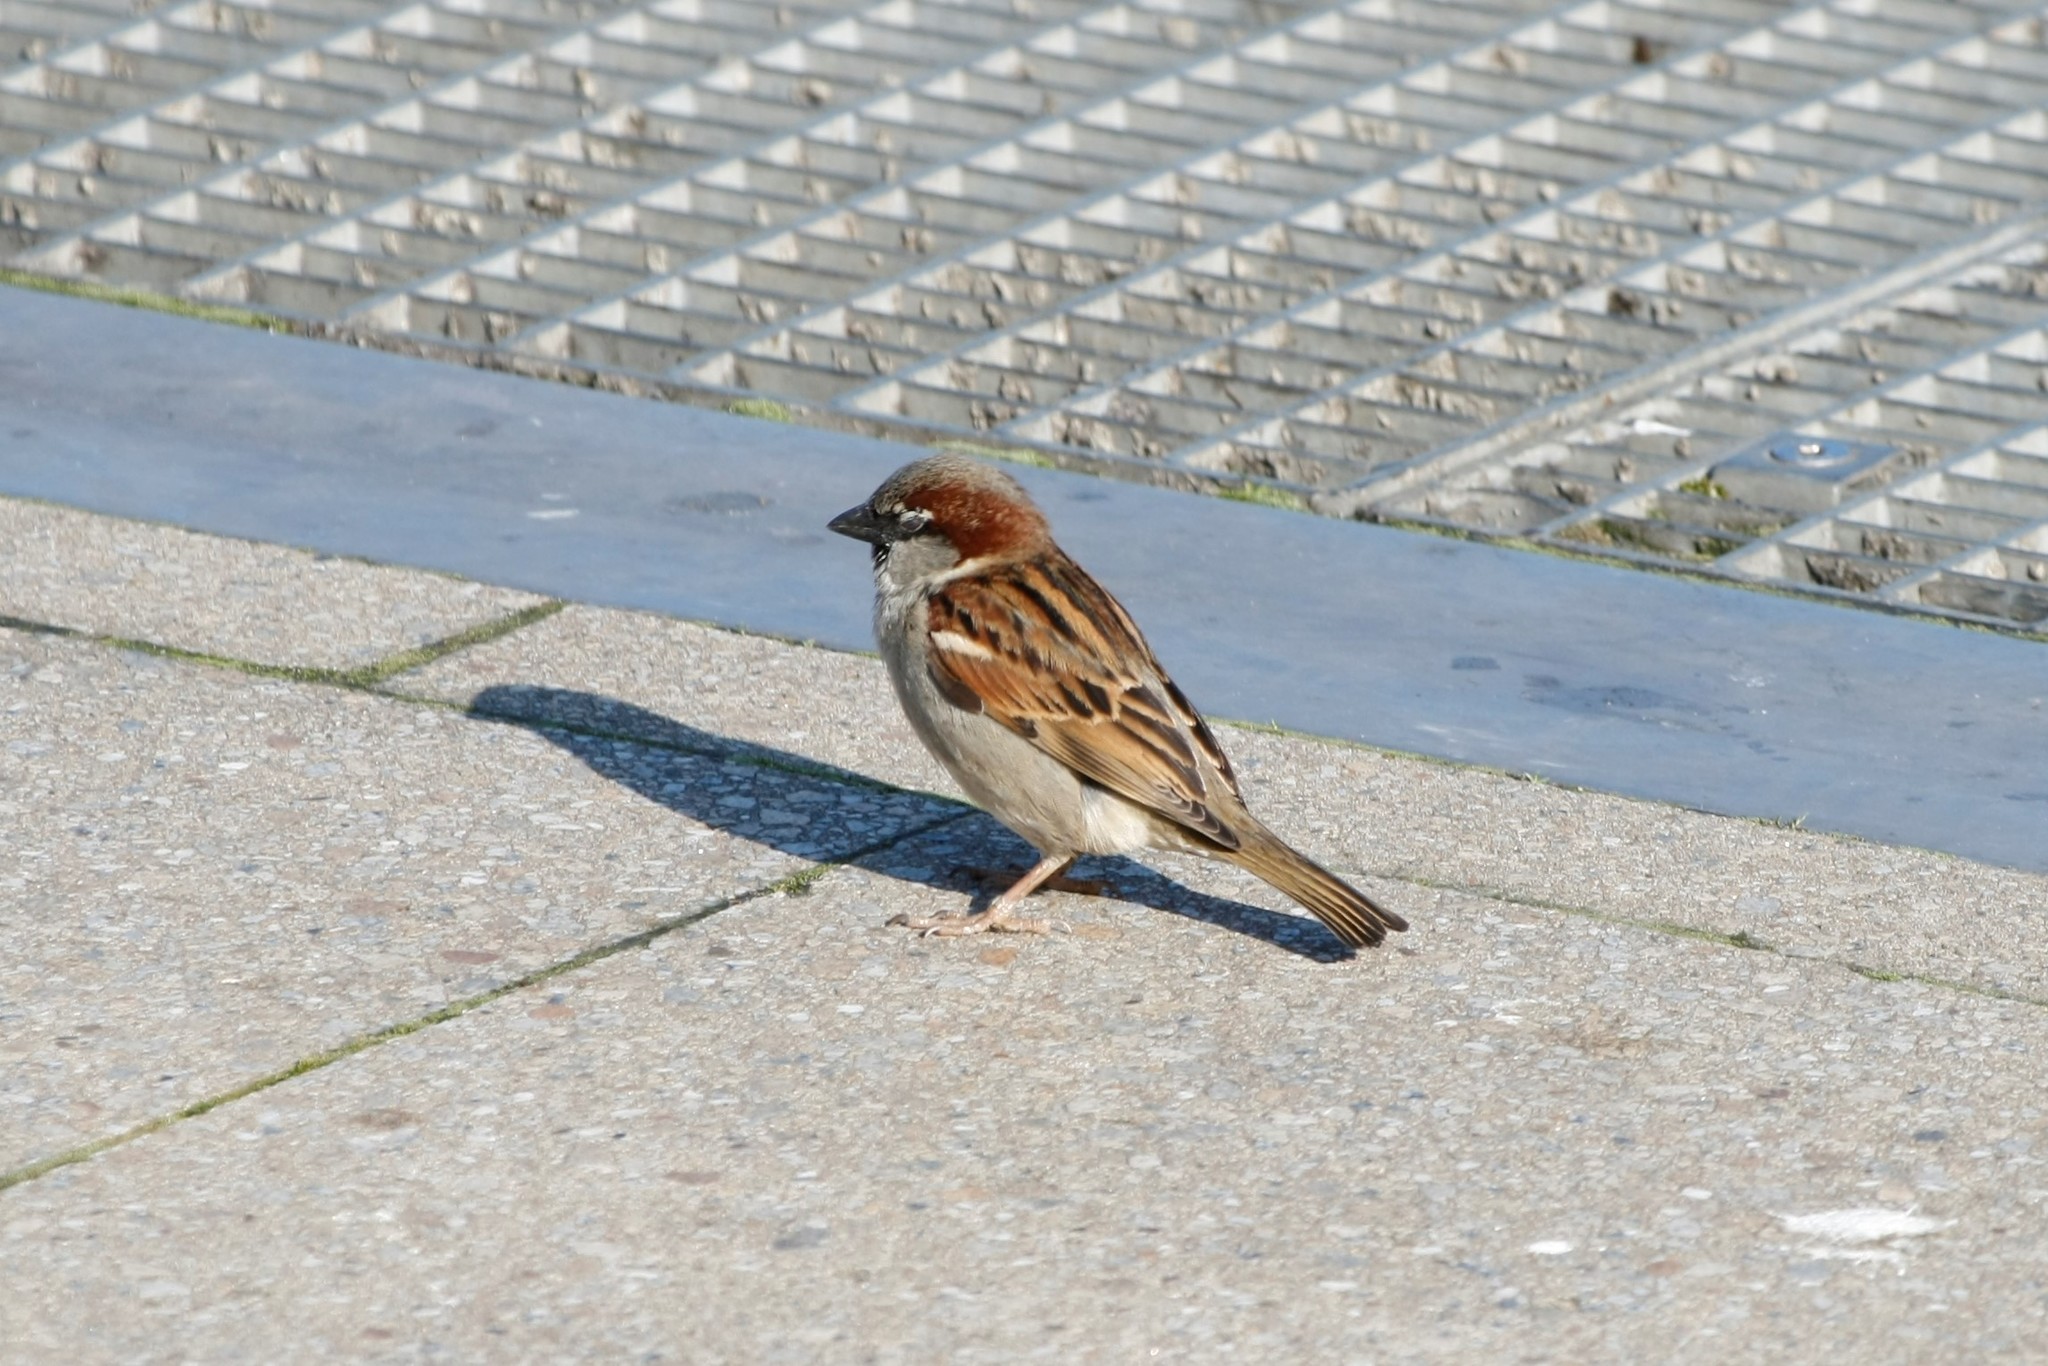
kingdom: Animalia
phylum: Chordata
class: Aves
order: Passeriformes
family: Passeridae
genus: Passer
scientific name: Passer domesticus
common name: House sparrow
